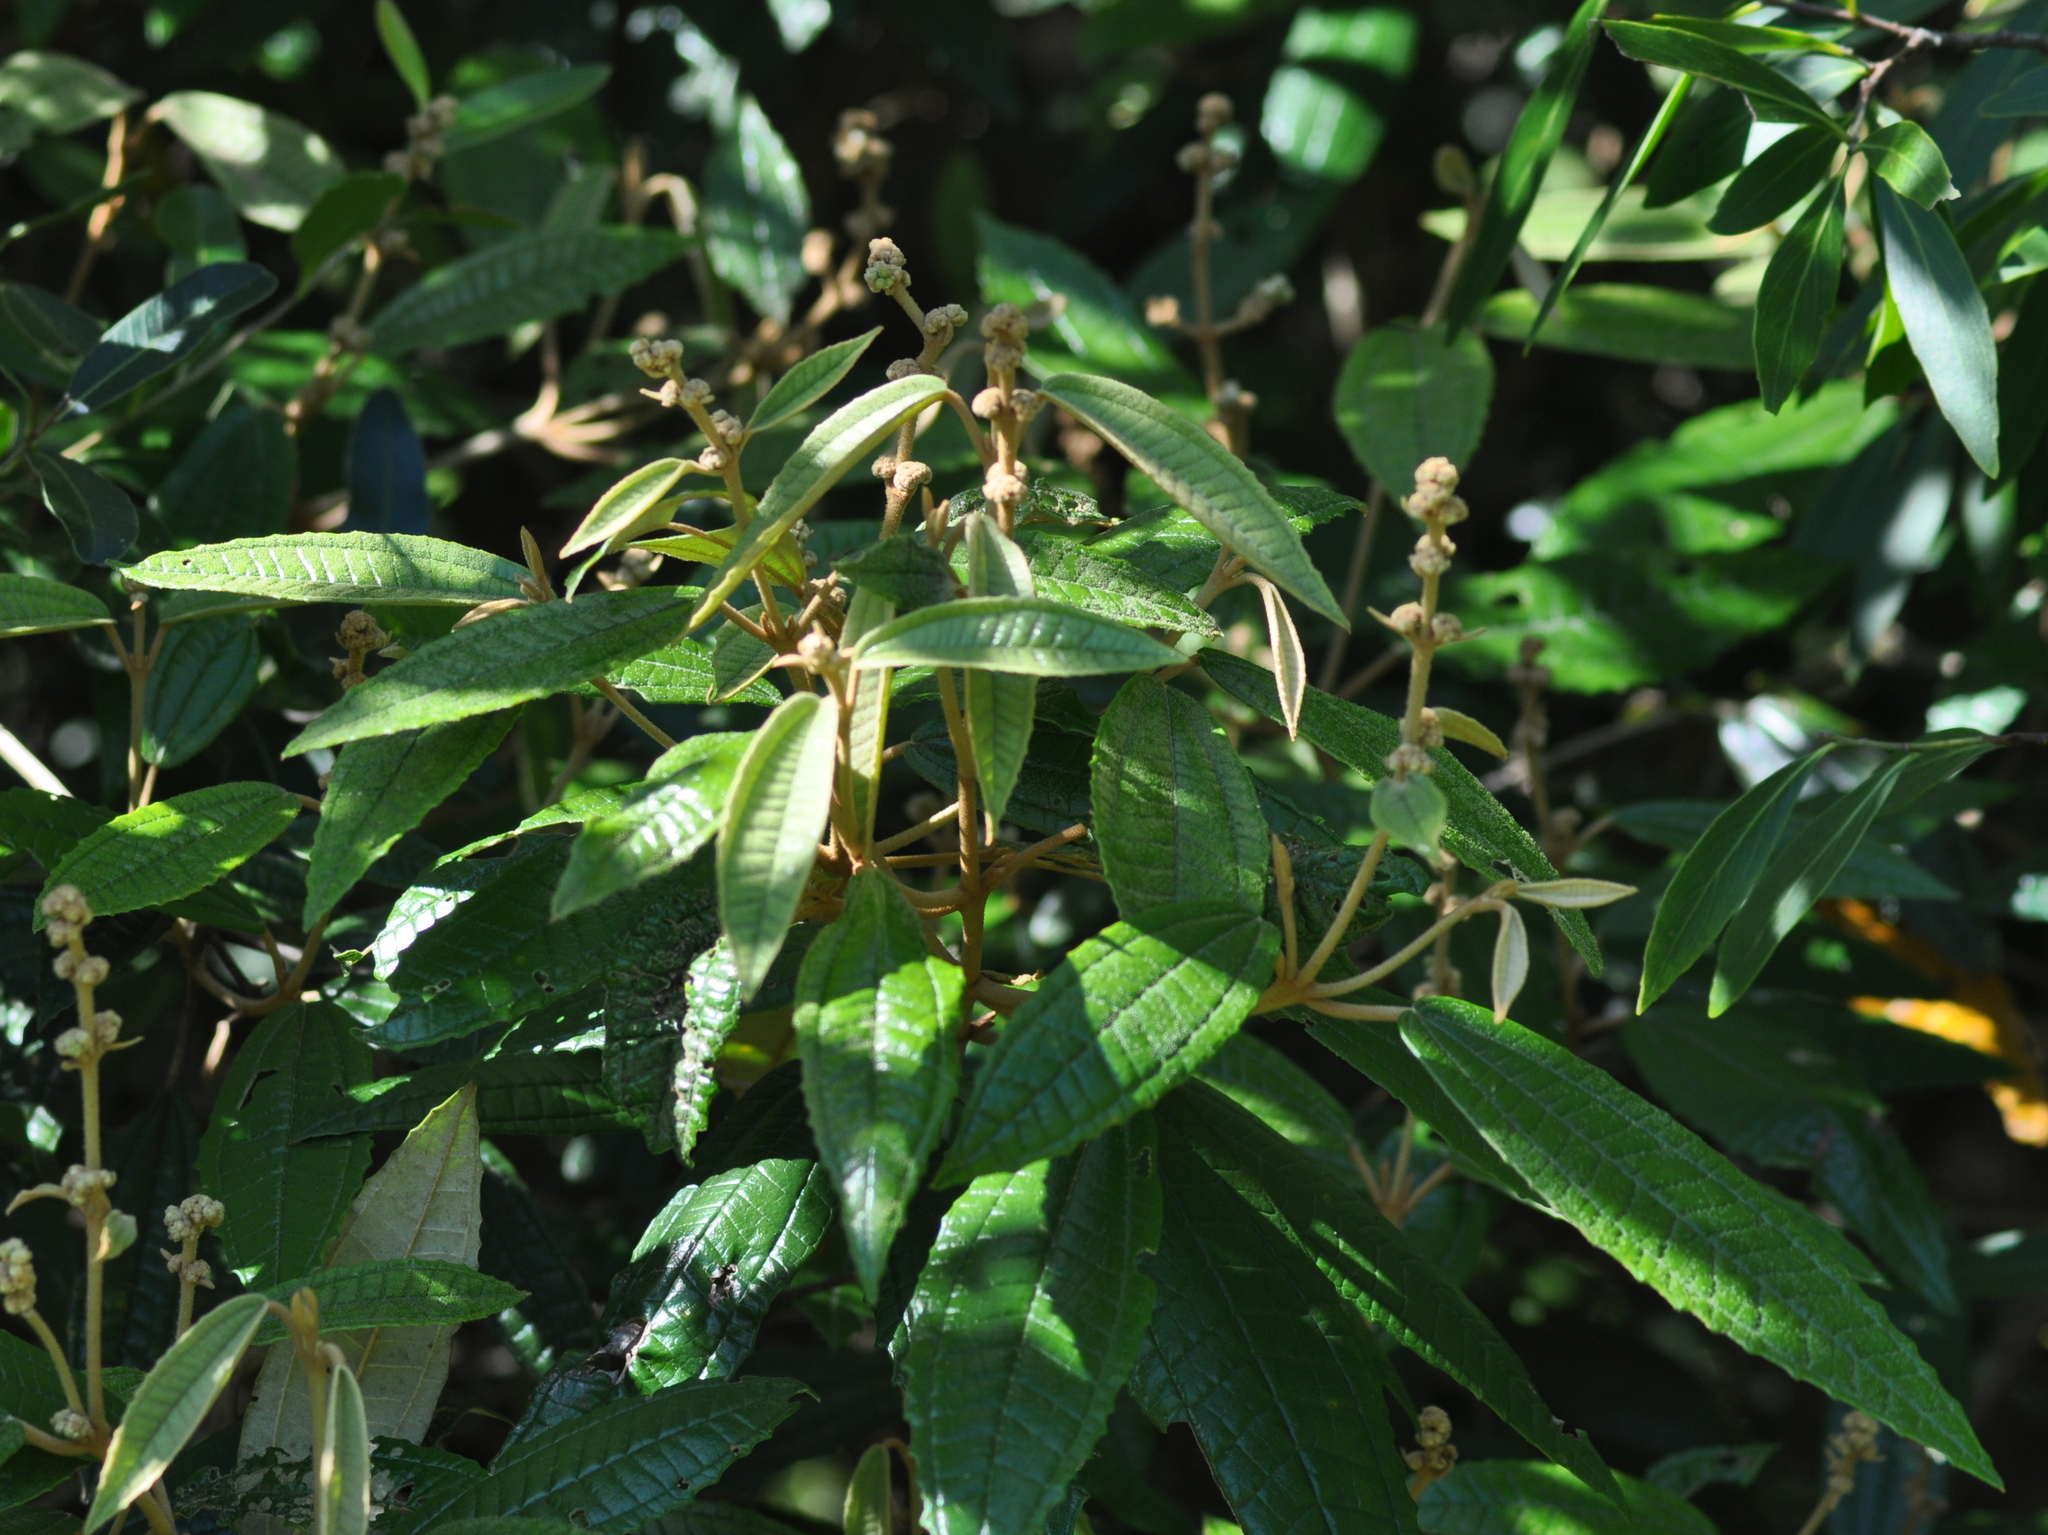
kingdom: Plantae
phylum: Tracheophyta
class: Magnoliopsida
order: Myrtales
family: Melastomataceae
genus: Miconia
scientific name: Miconia hyemalis
